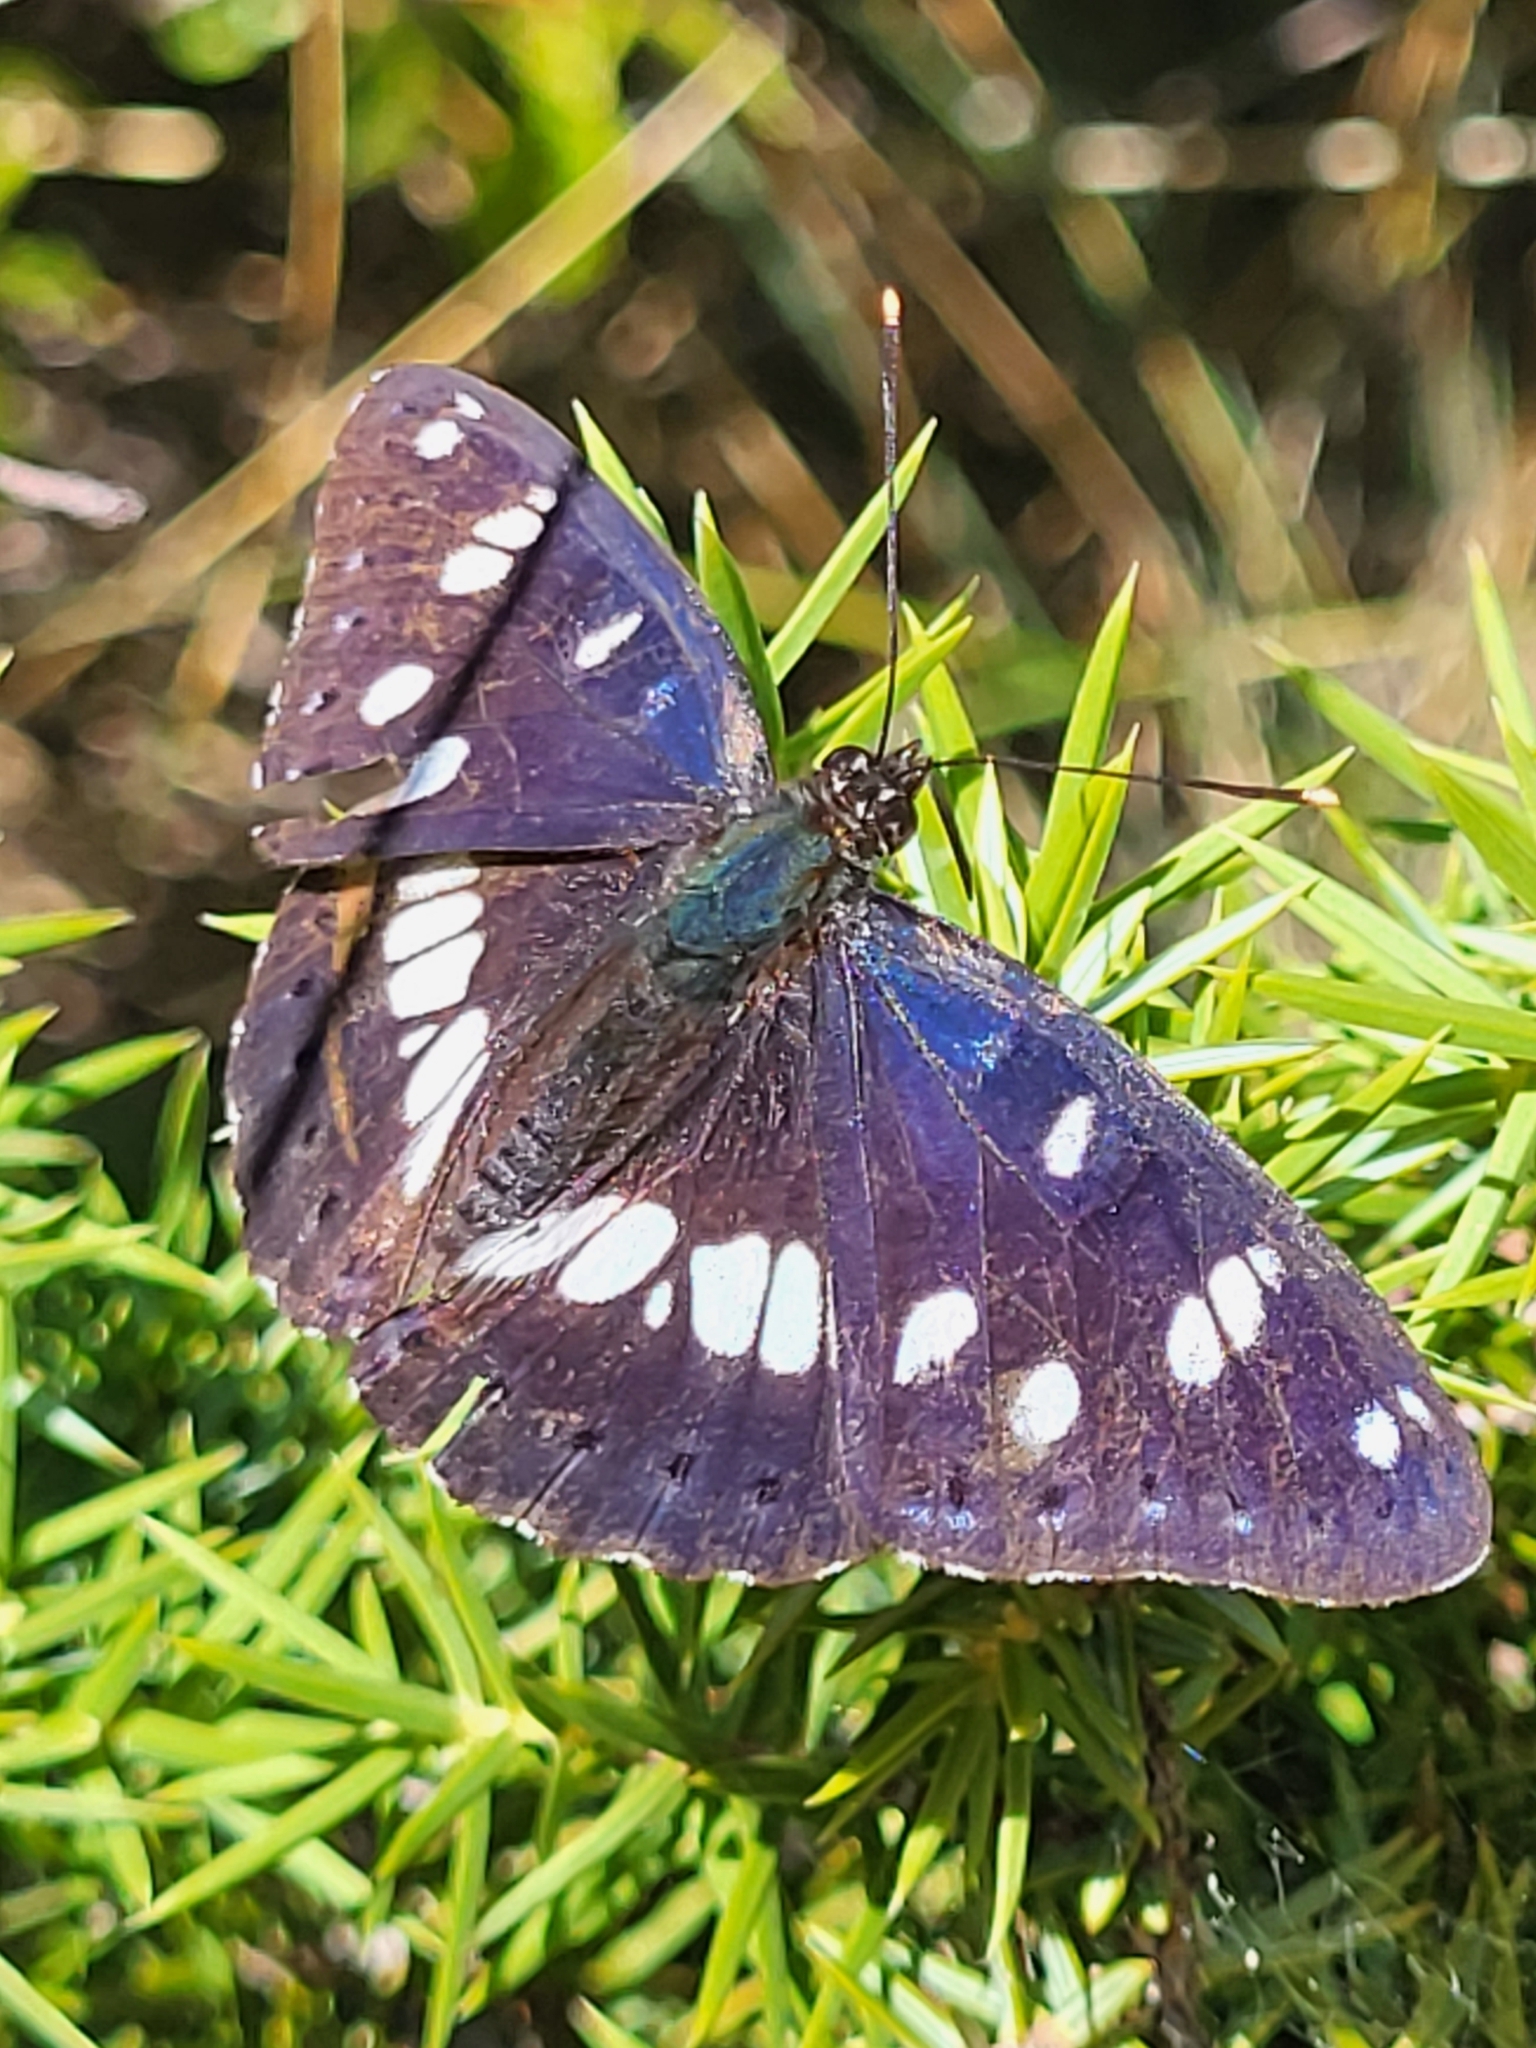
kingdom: Animalia
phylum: Arthropoda
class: Insecta
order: Lepidoptera
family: Nymphalidae
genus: Limenitis
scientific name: Limenitis reducta
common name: Southern white admiral
